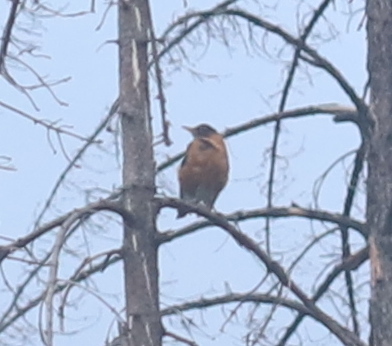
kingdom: Animalia
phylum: Chordata
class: Aves
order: Passeriformes
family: Turdidae
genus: Turdus
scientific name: Turdus migratorius
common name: American robin
